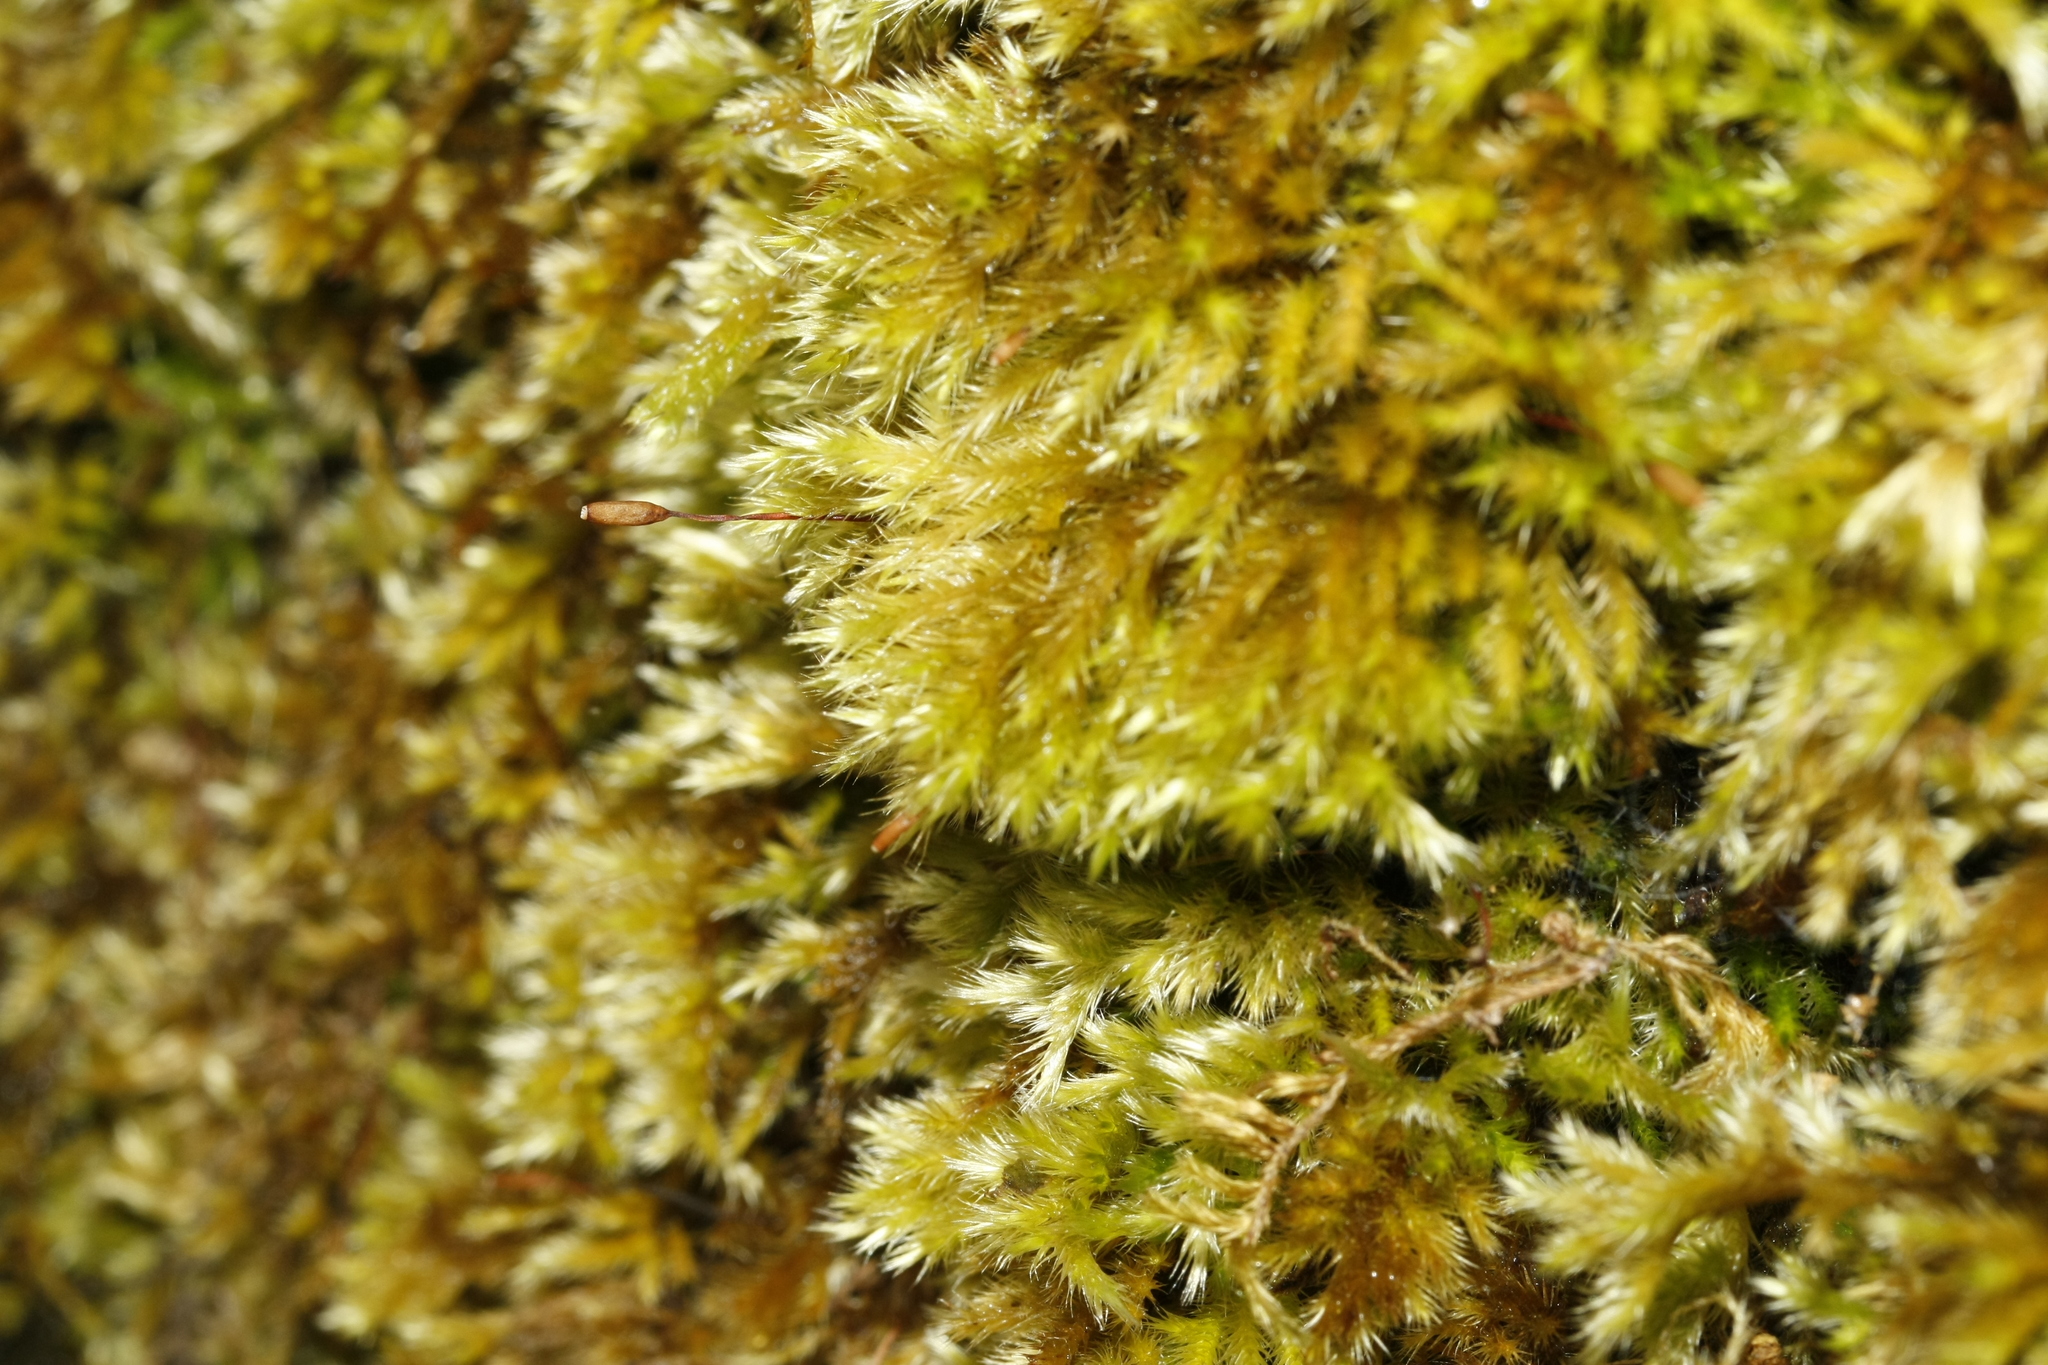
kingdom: Plantae
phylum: Bryophyta
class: Bryopsida
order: Hypnales
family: Brachytheciaceae
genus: Homalothecium
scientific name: Homalothecium sericeum
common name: Silky wall feather-moss
